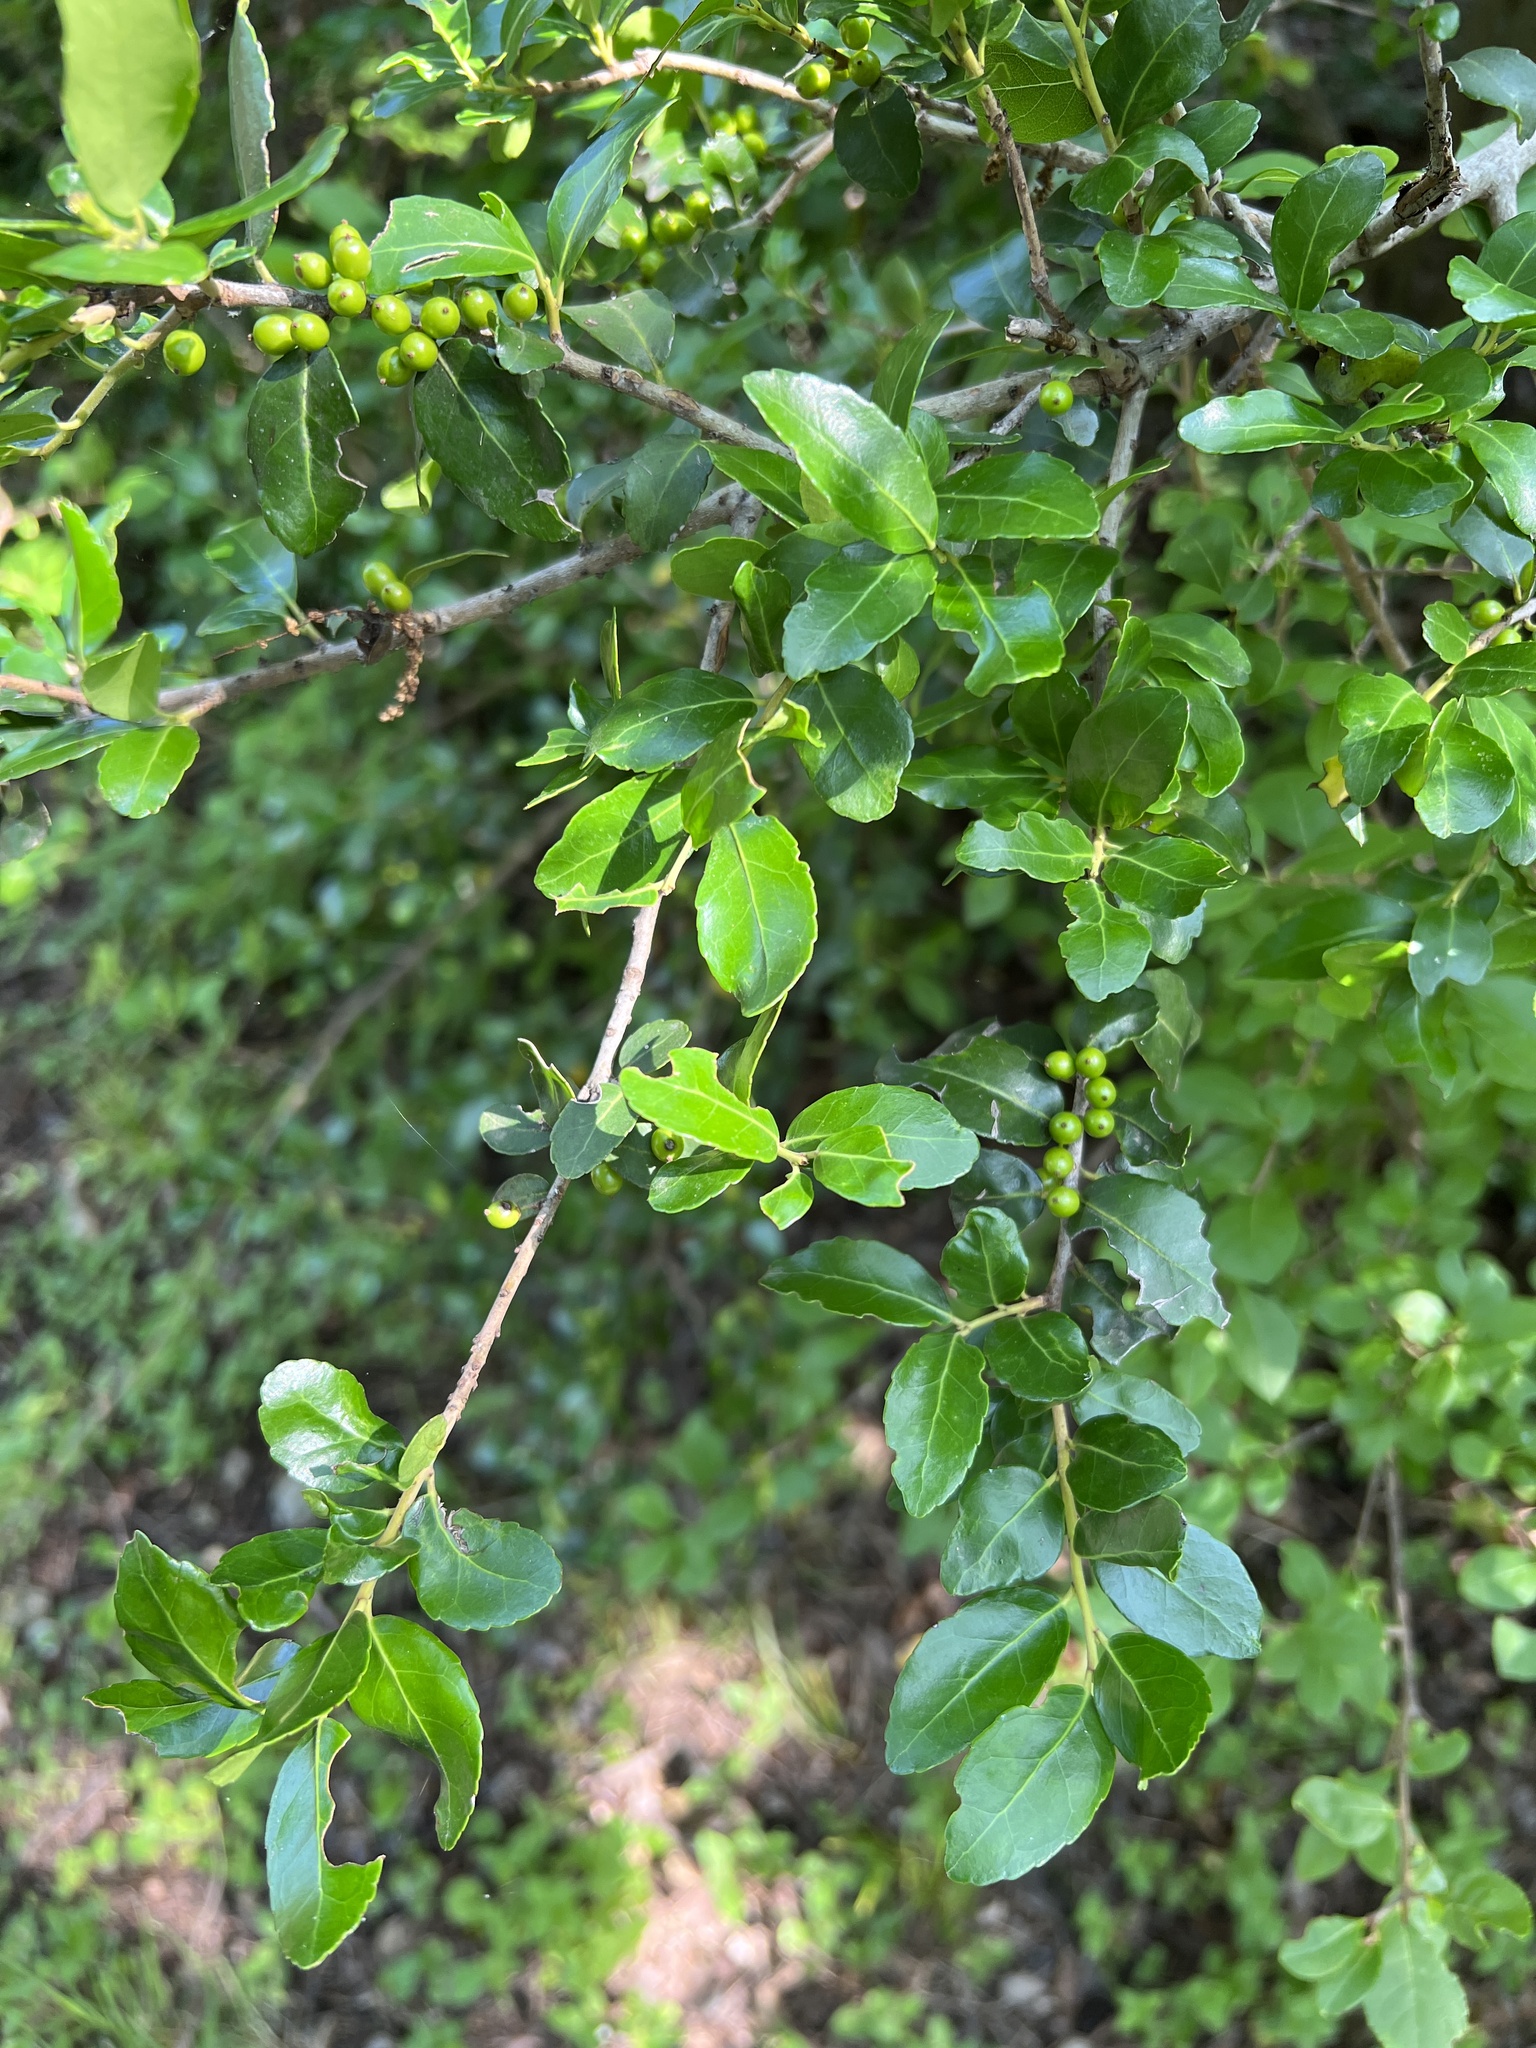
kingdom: Plantae
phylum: Tracheophyta
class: Magnoliopsida
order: Aquifoliales
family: Aquifoliaceae
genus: Ilex
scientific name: Ilex vomitoria
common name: Yaupon holly
